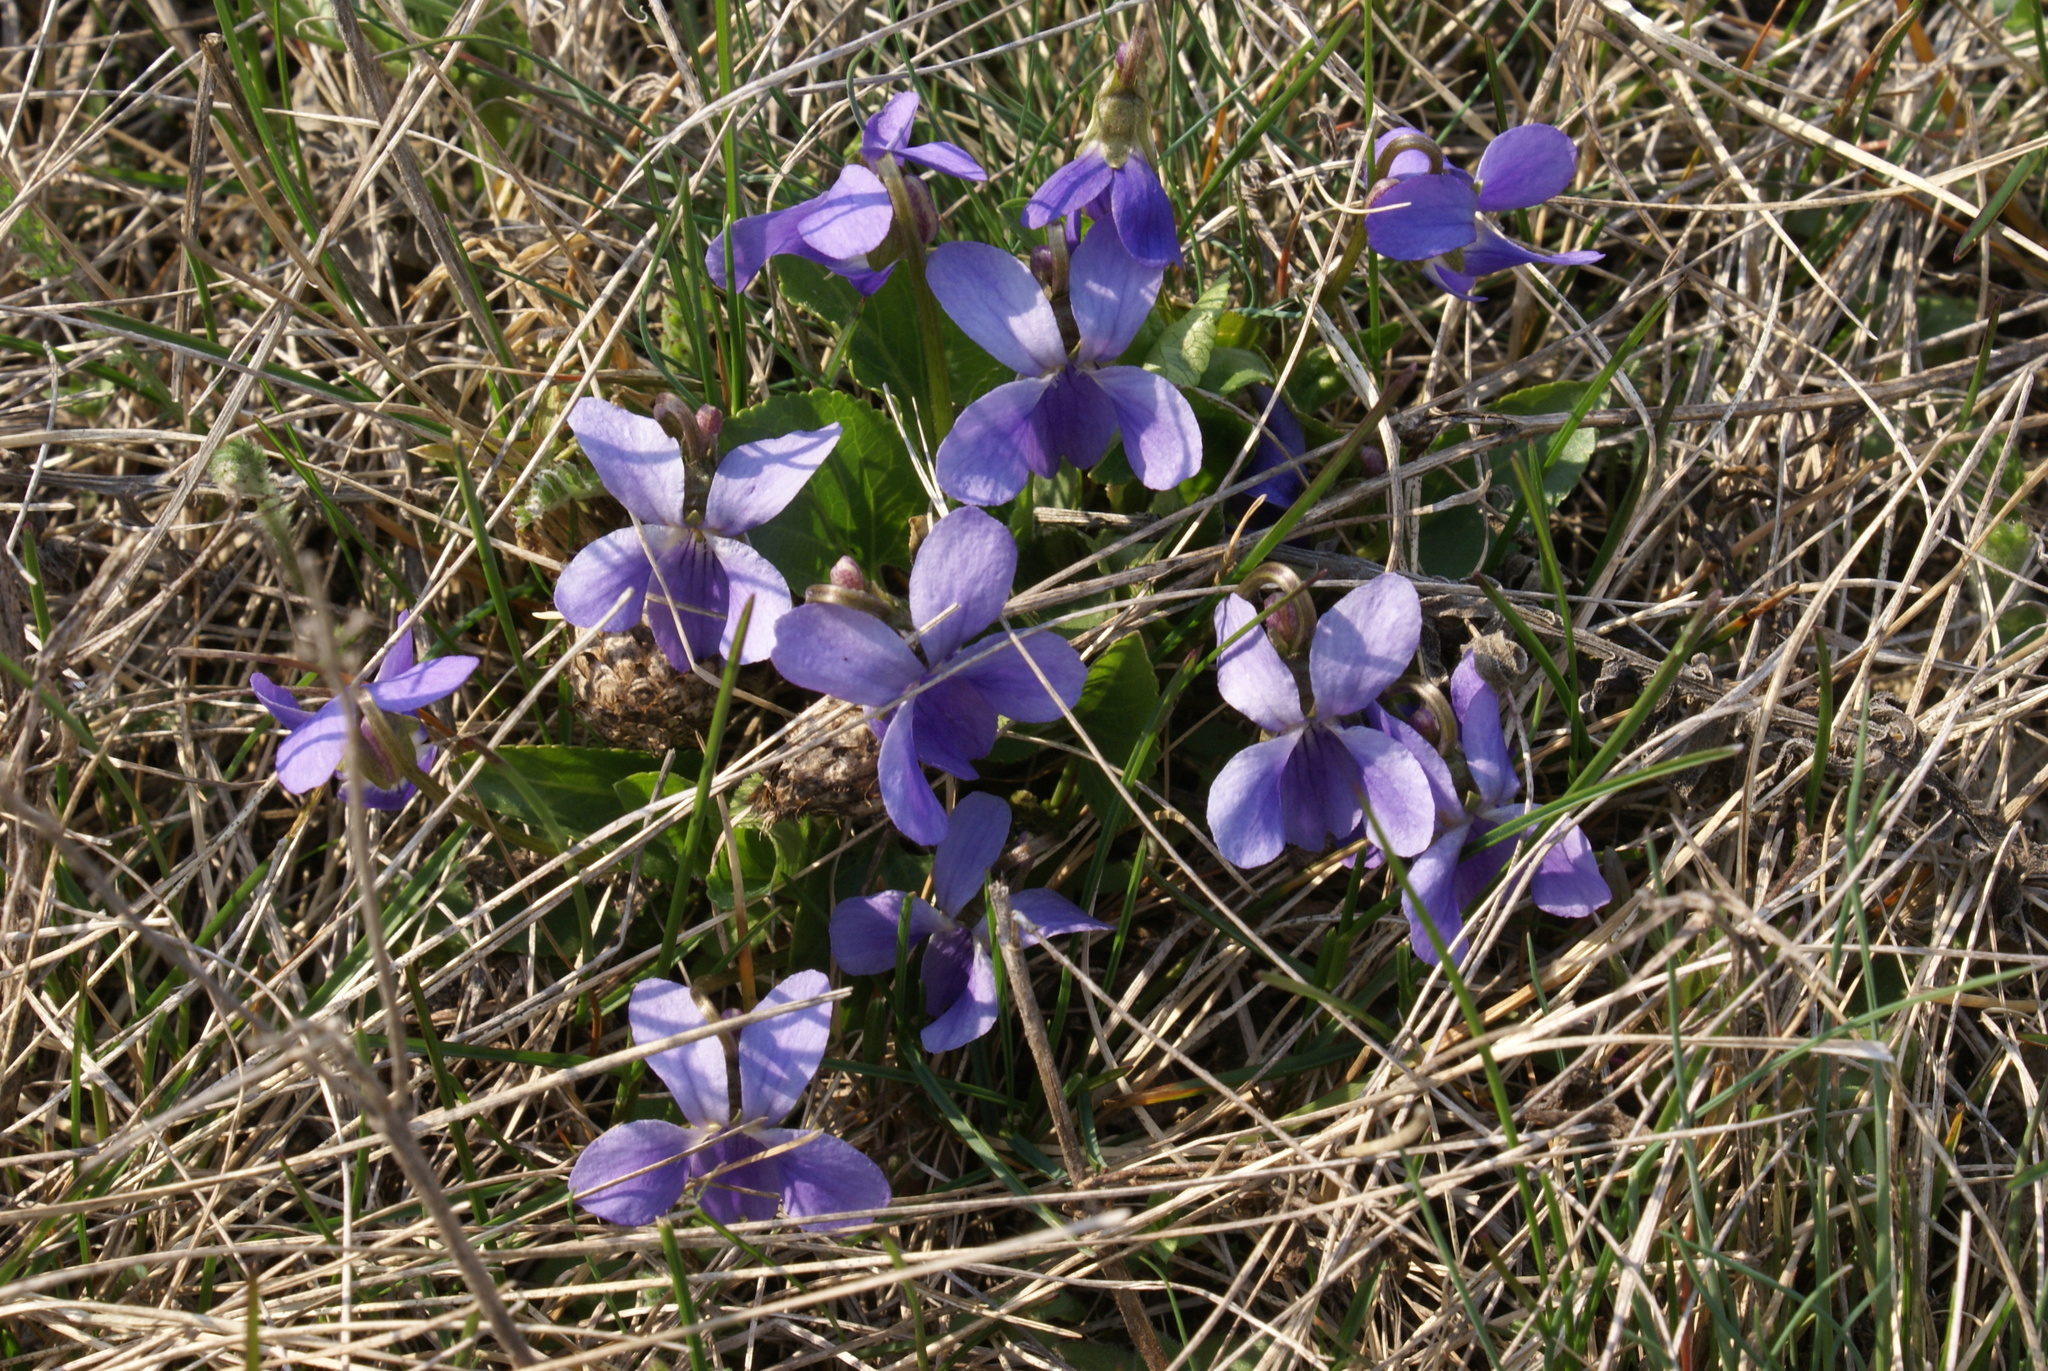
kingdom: Plantae
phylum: Tracheophyta
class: Magnoliopsida
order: Malpighiales
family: Violaceae
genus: Viola
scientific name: Viola ambigua
